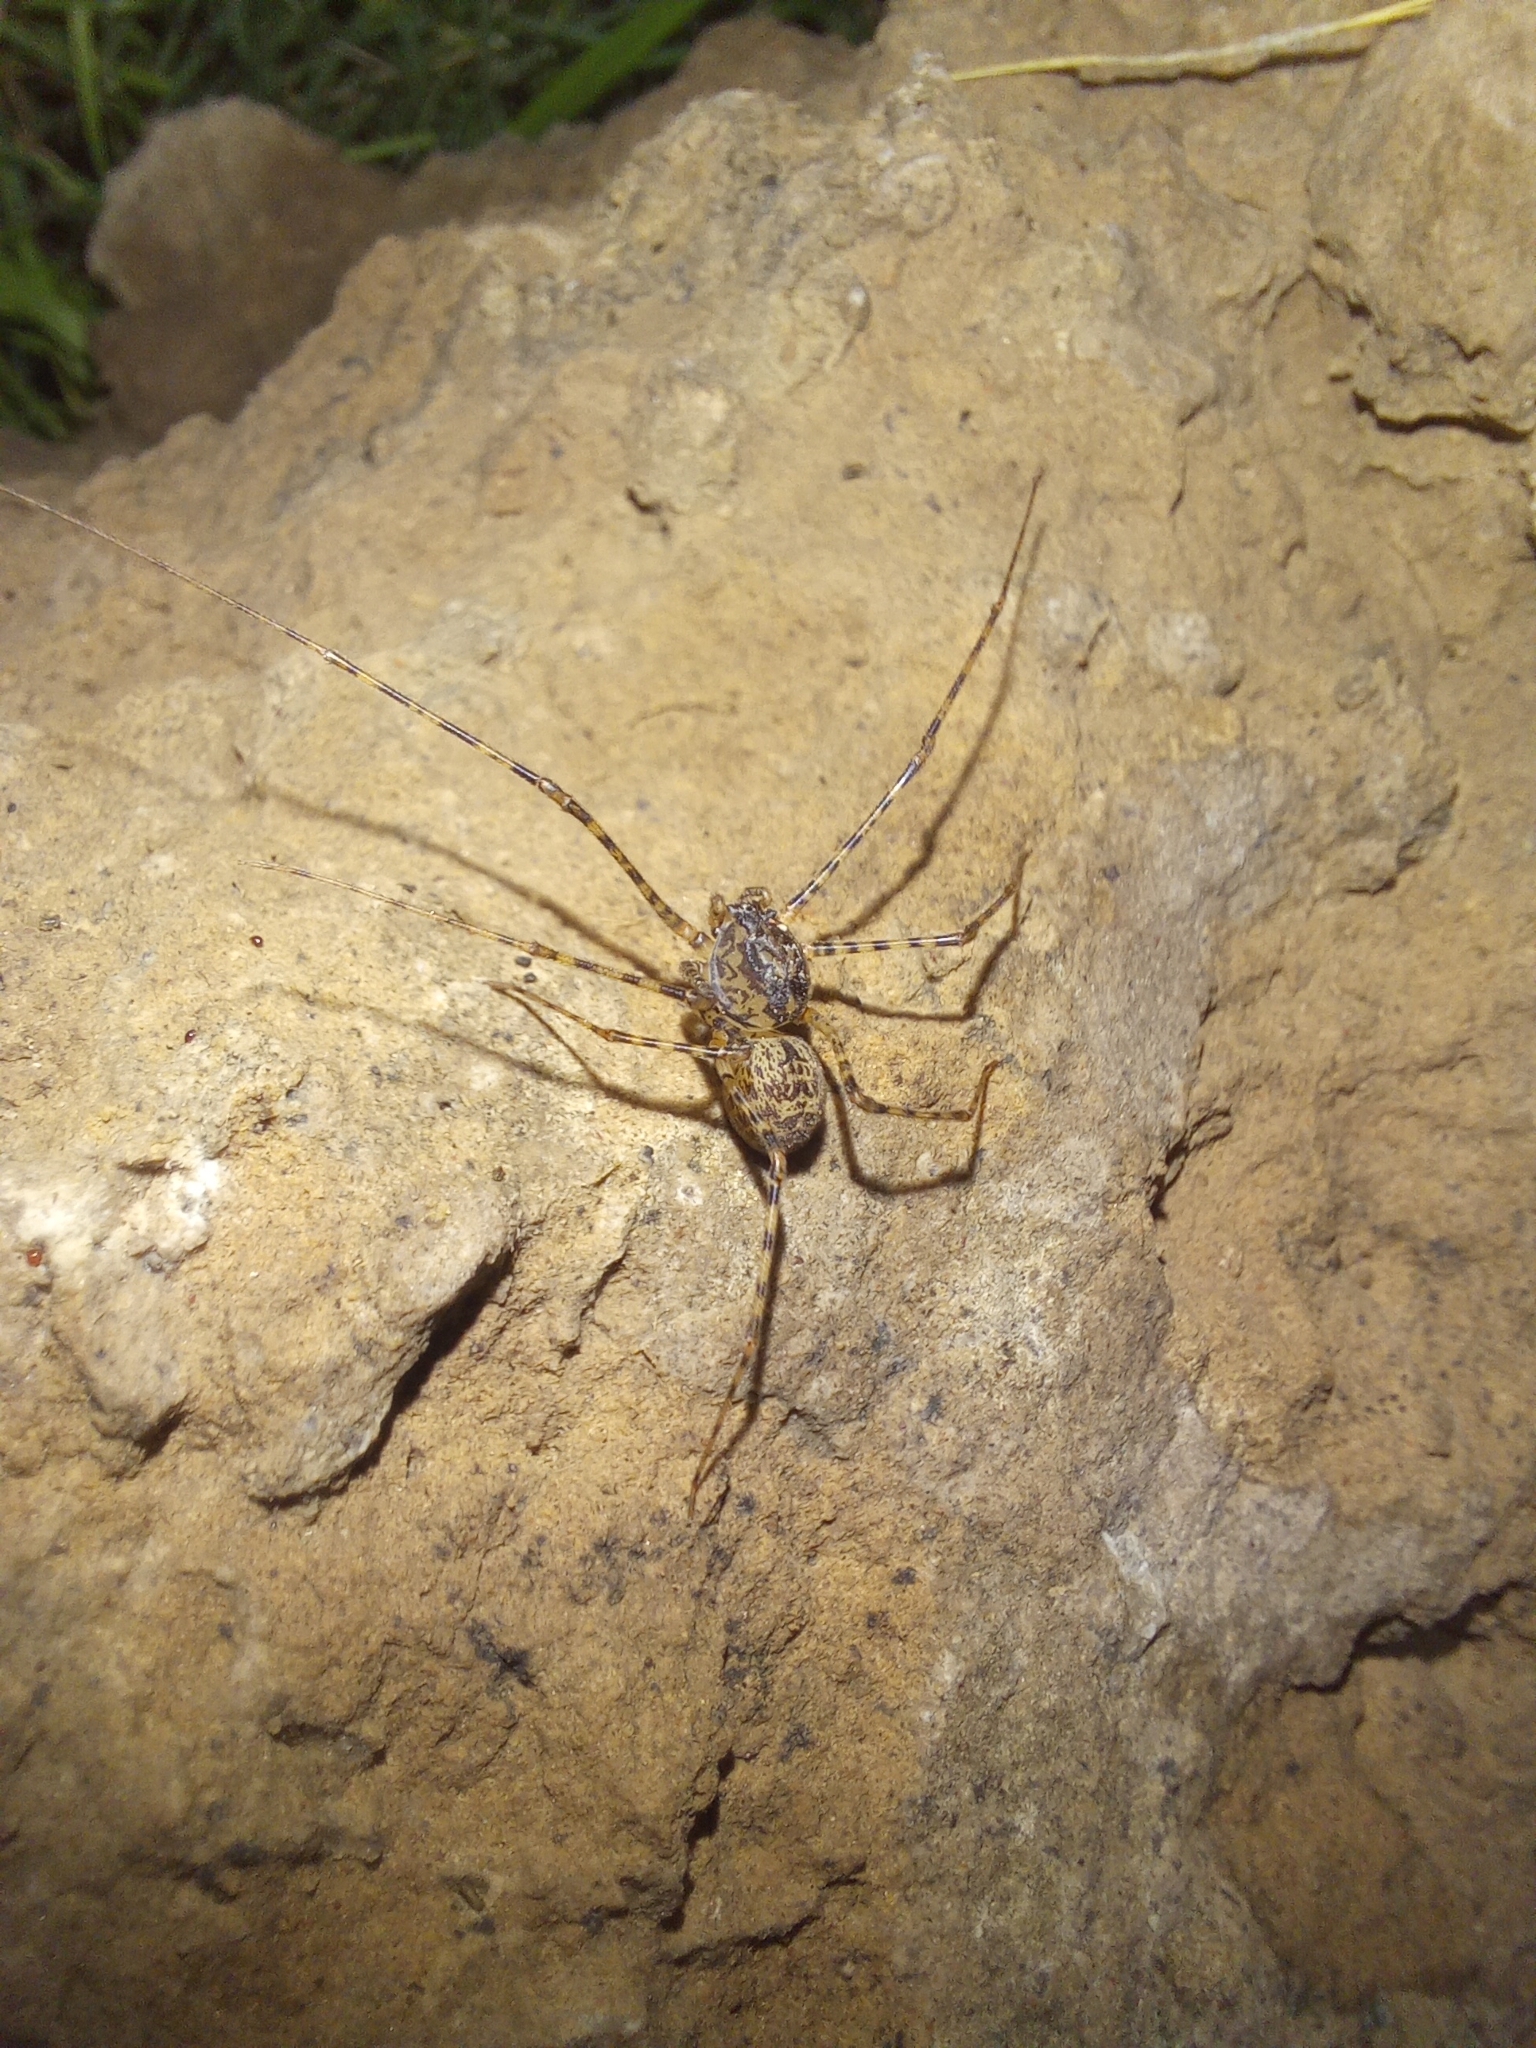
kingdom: Animalia
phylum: Arthropoda
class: Arachnida
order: Araneae
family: Scytodidae
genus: Scytodes
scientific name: Scytodes globula
